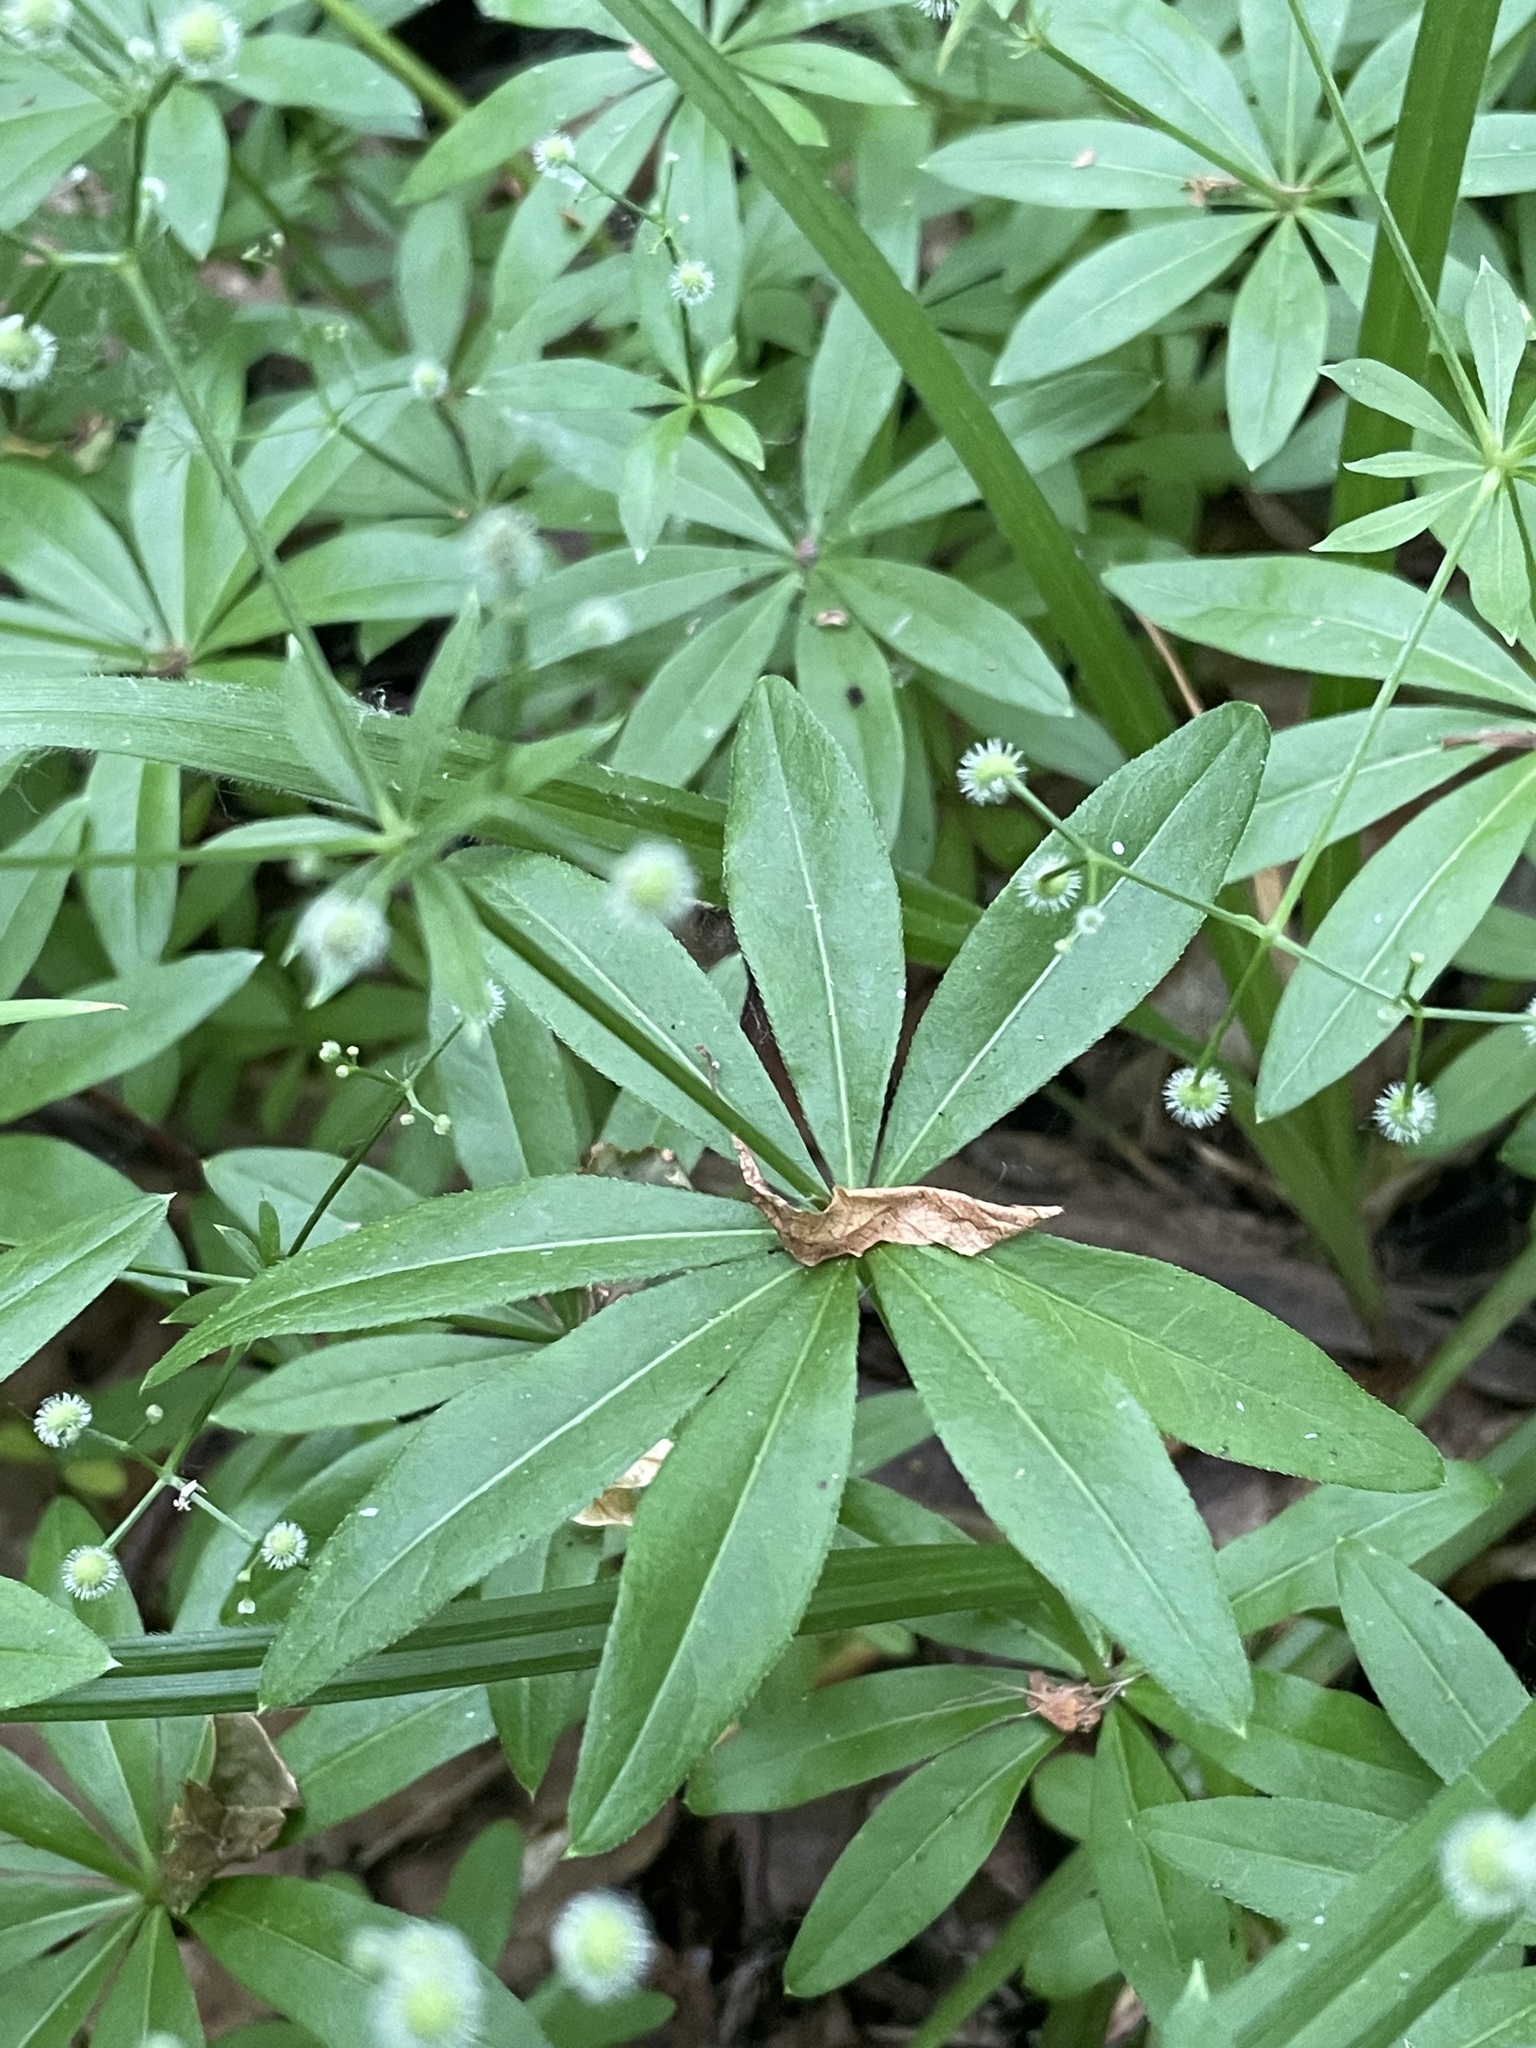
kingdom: Plantae
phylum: Tracheophyta
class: Magnoliopsida
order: Gentianales
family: Rubiaceae
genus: Galium
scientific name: Galium odoratum
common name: Sweet woodruff
